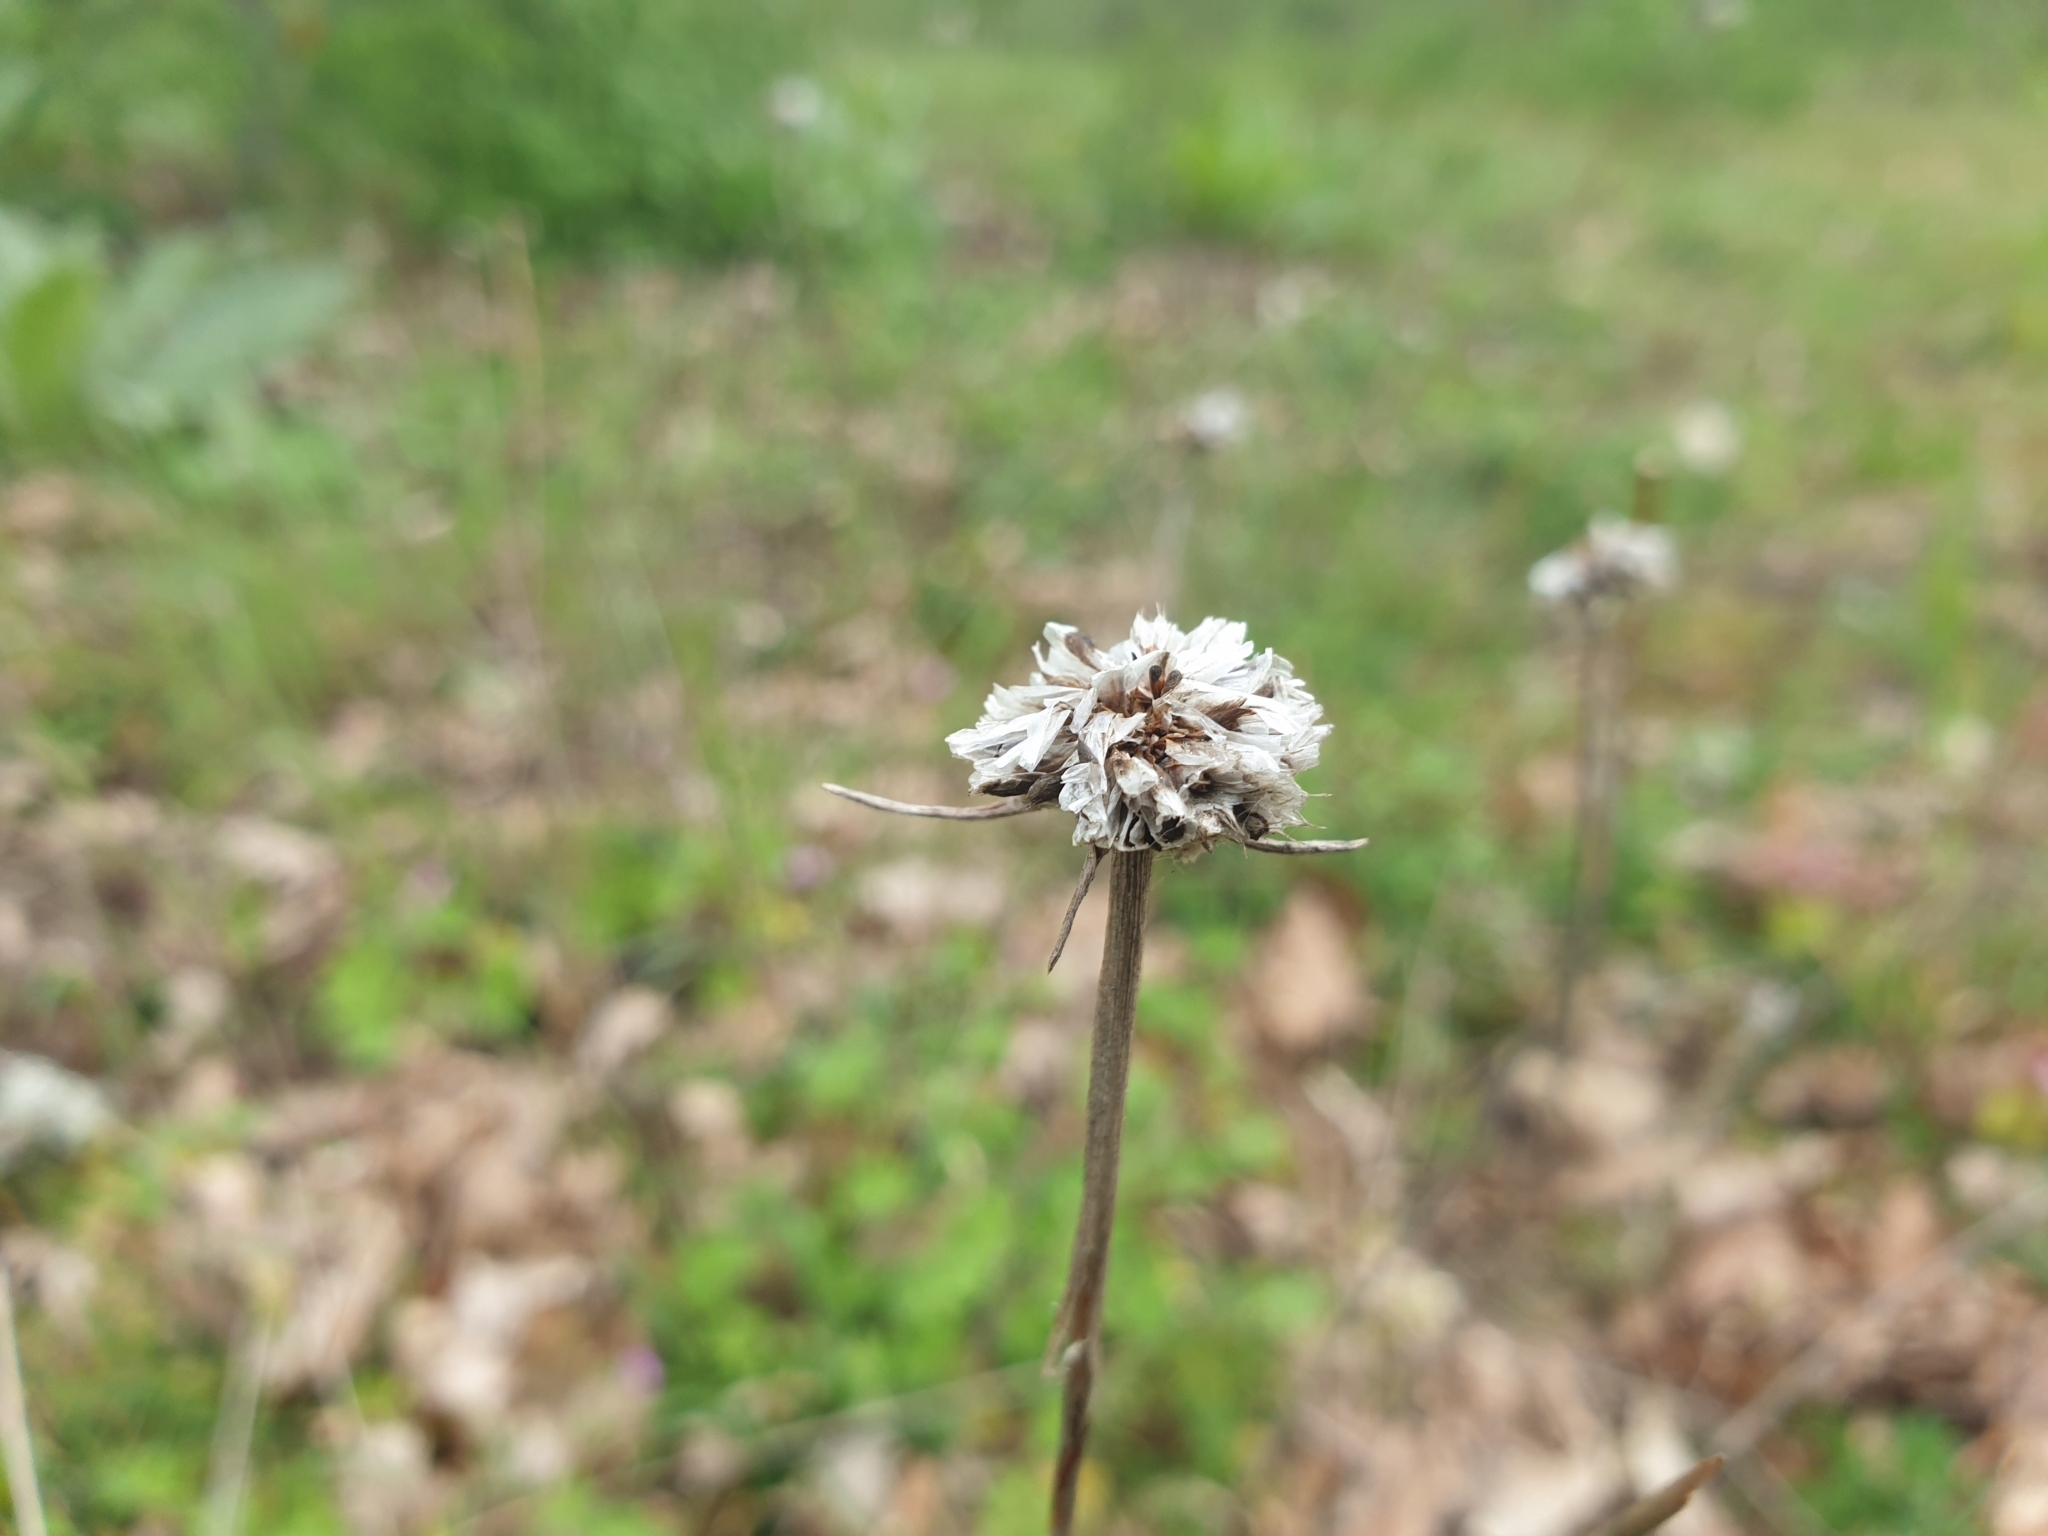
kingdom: Plantae
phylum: Tracheophyta
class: Magnoliopsida
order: Caryophyllales
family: Plumbaginaceae
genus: Armeria
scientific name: Armeria arenaria
